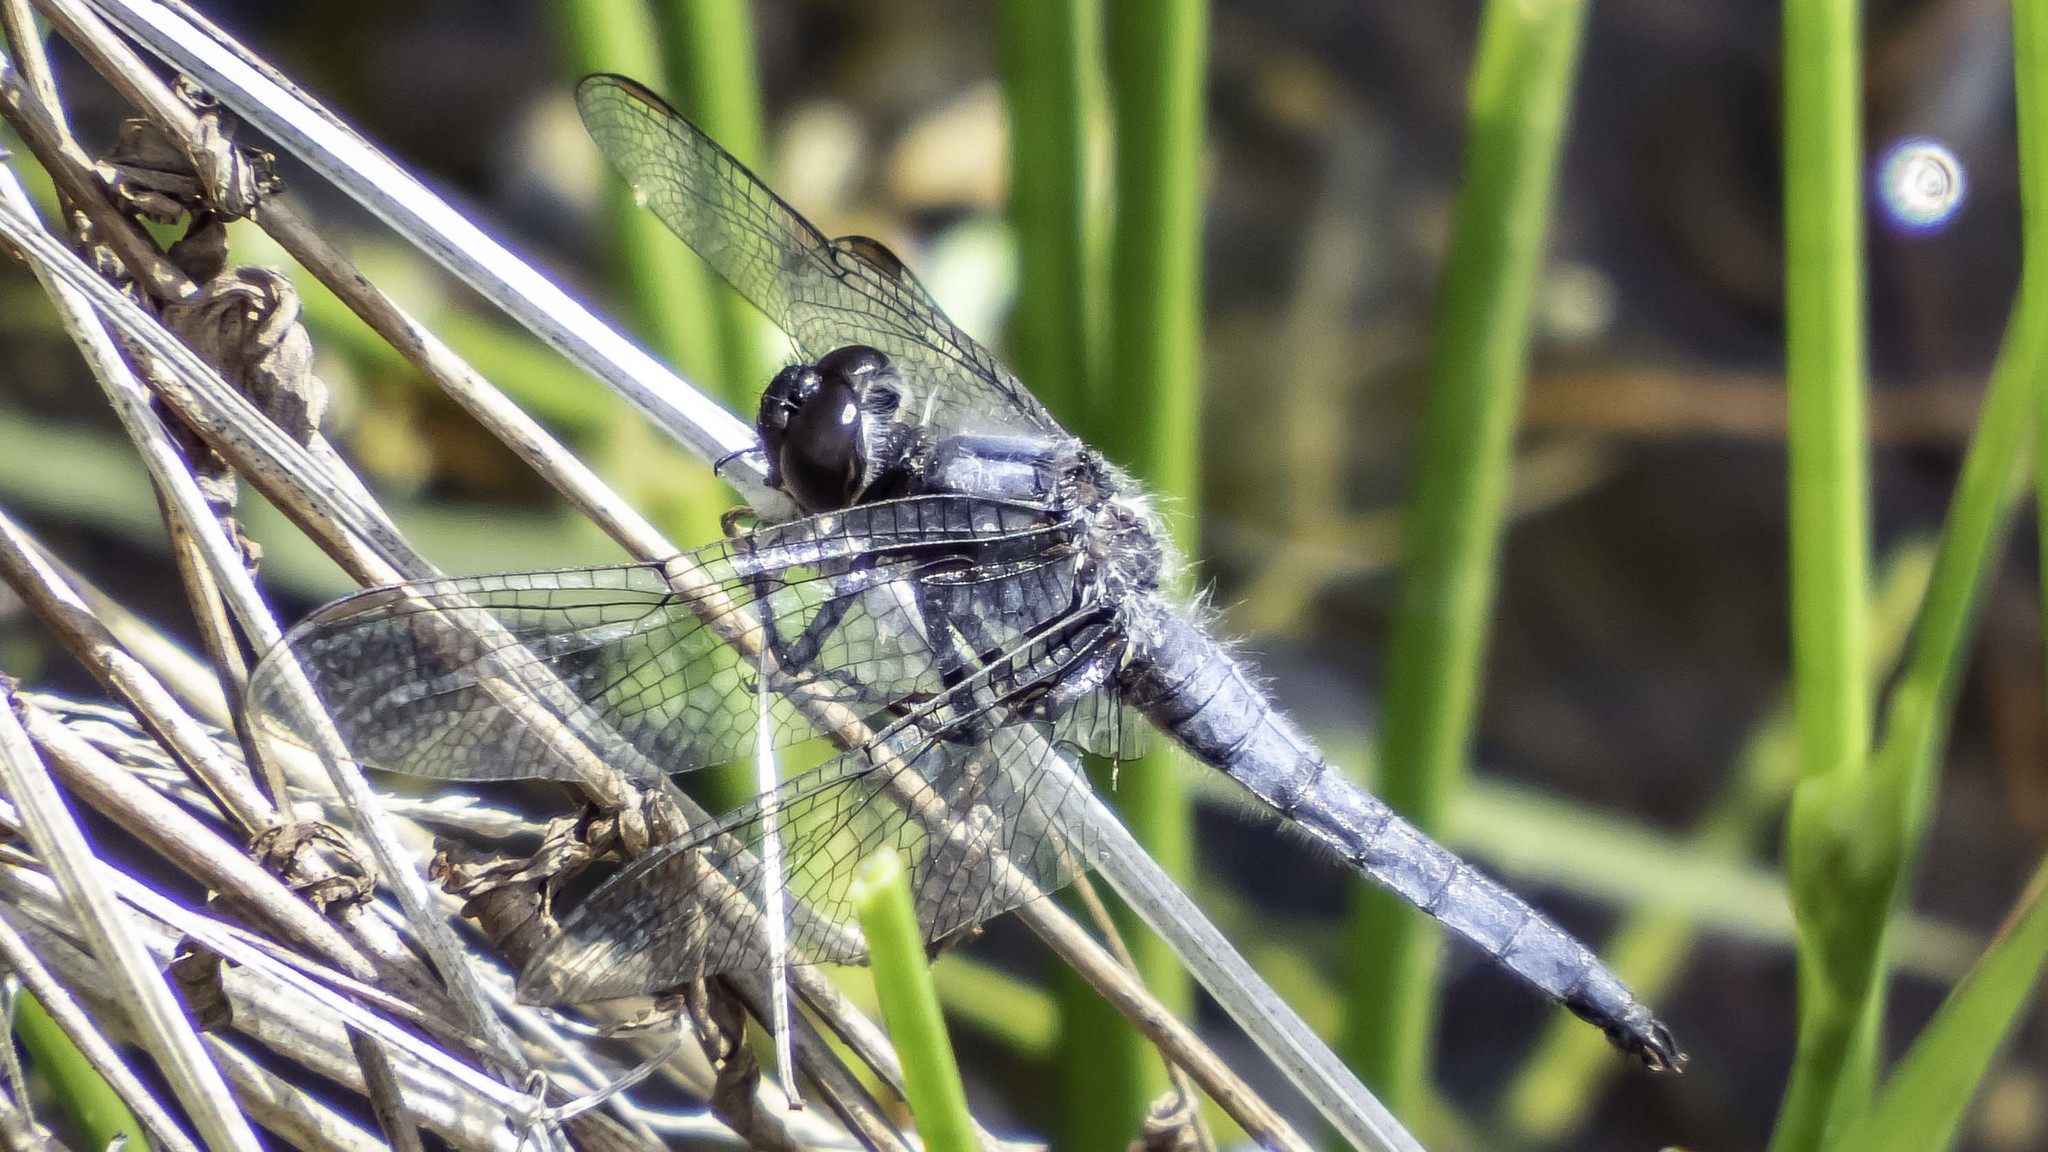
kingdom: Animalia
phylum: Arthropoda
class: Insecta
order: Odonata
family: Libellulidae
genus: Ladona
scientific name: Ladona deplanata
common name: Blue corporal
